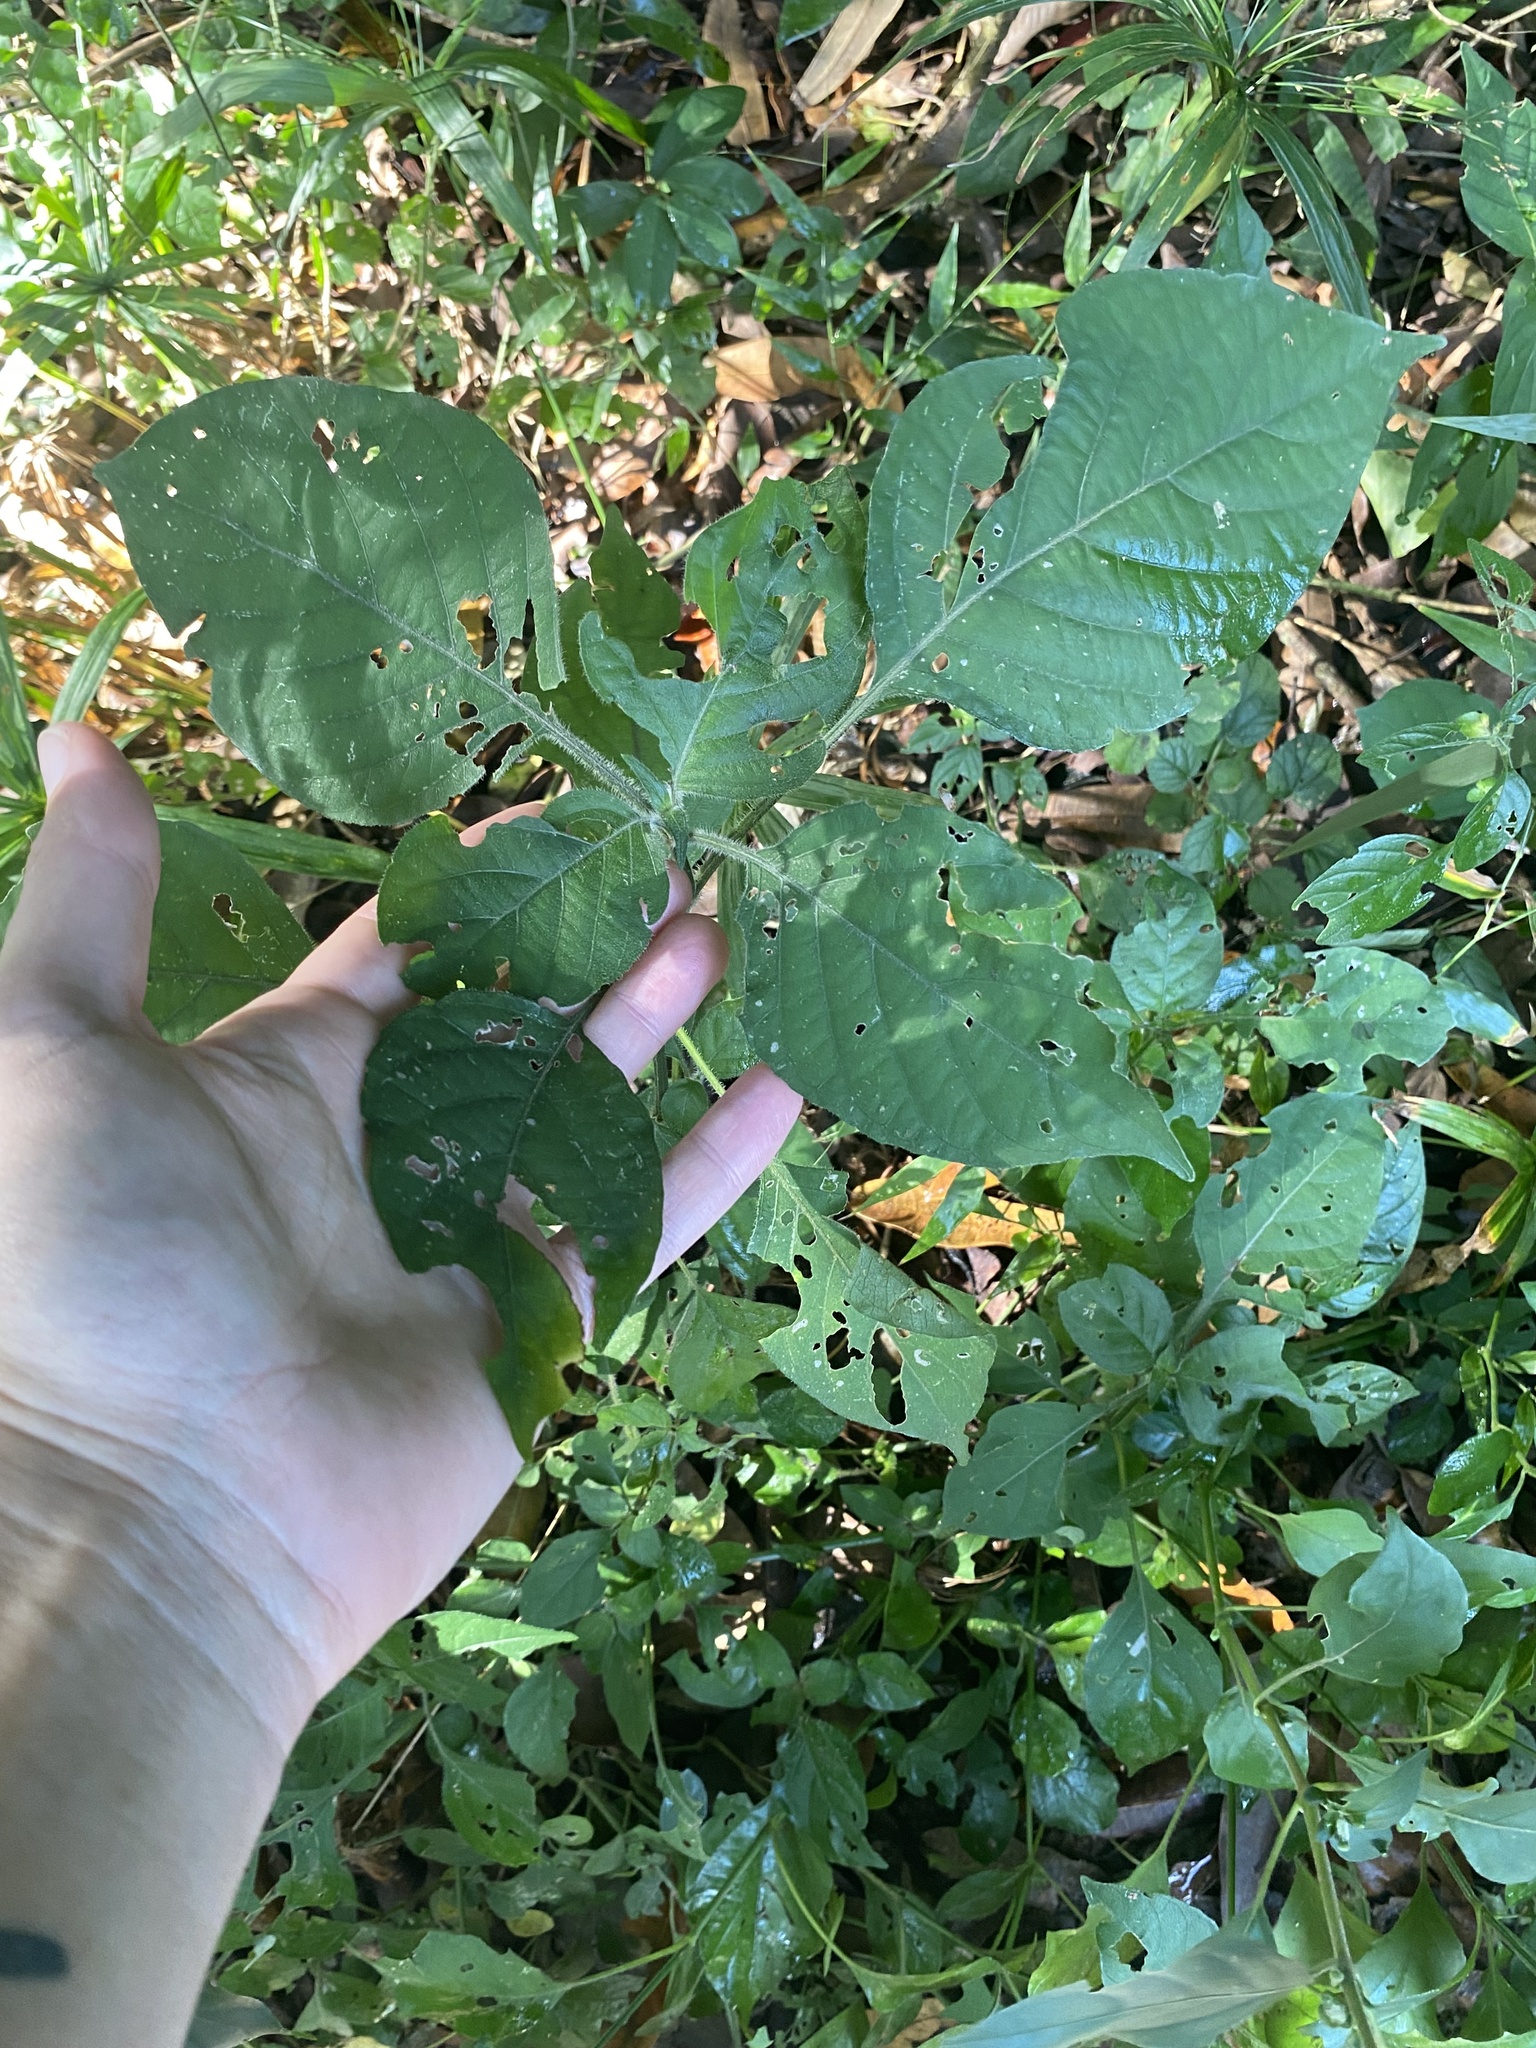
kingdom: Plantae
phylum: Tracheophyta
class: Magnoliopsida
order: Lamiales
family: Acanthaceae
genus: Isoglossa
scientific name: Isoglossa woodii
